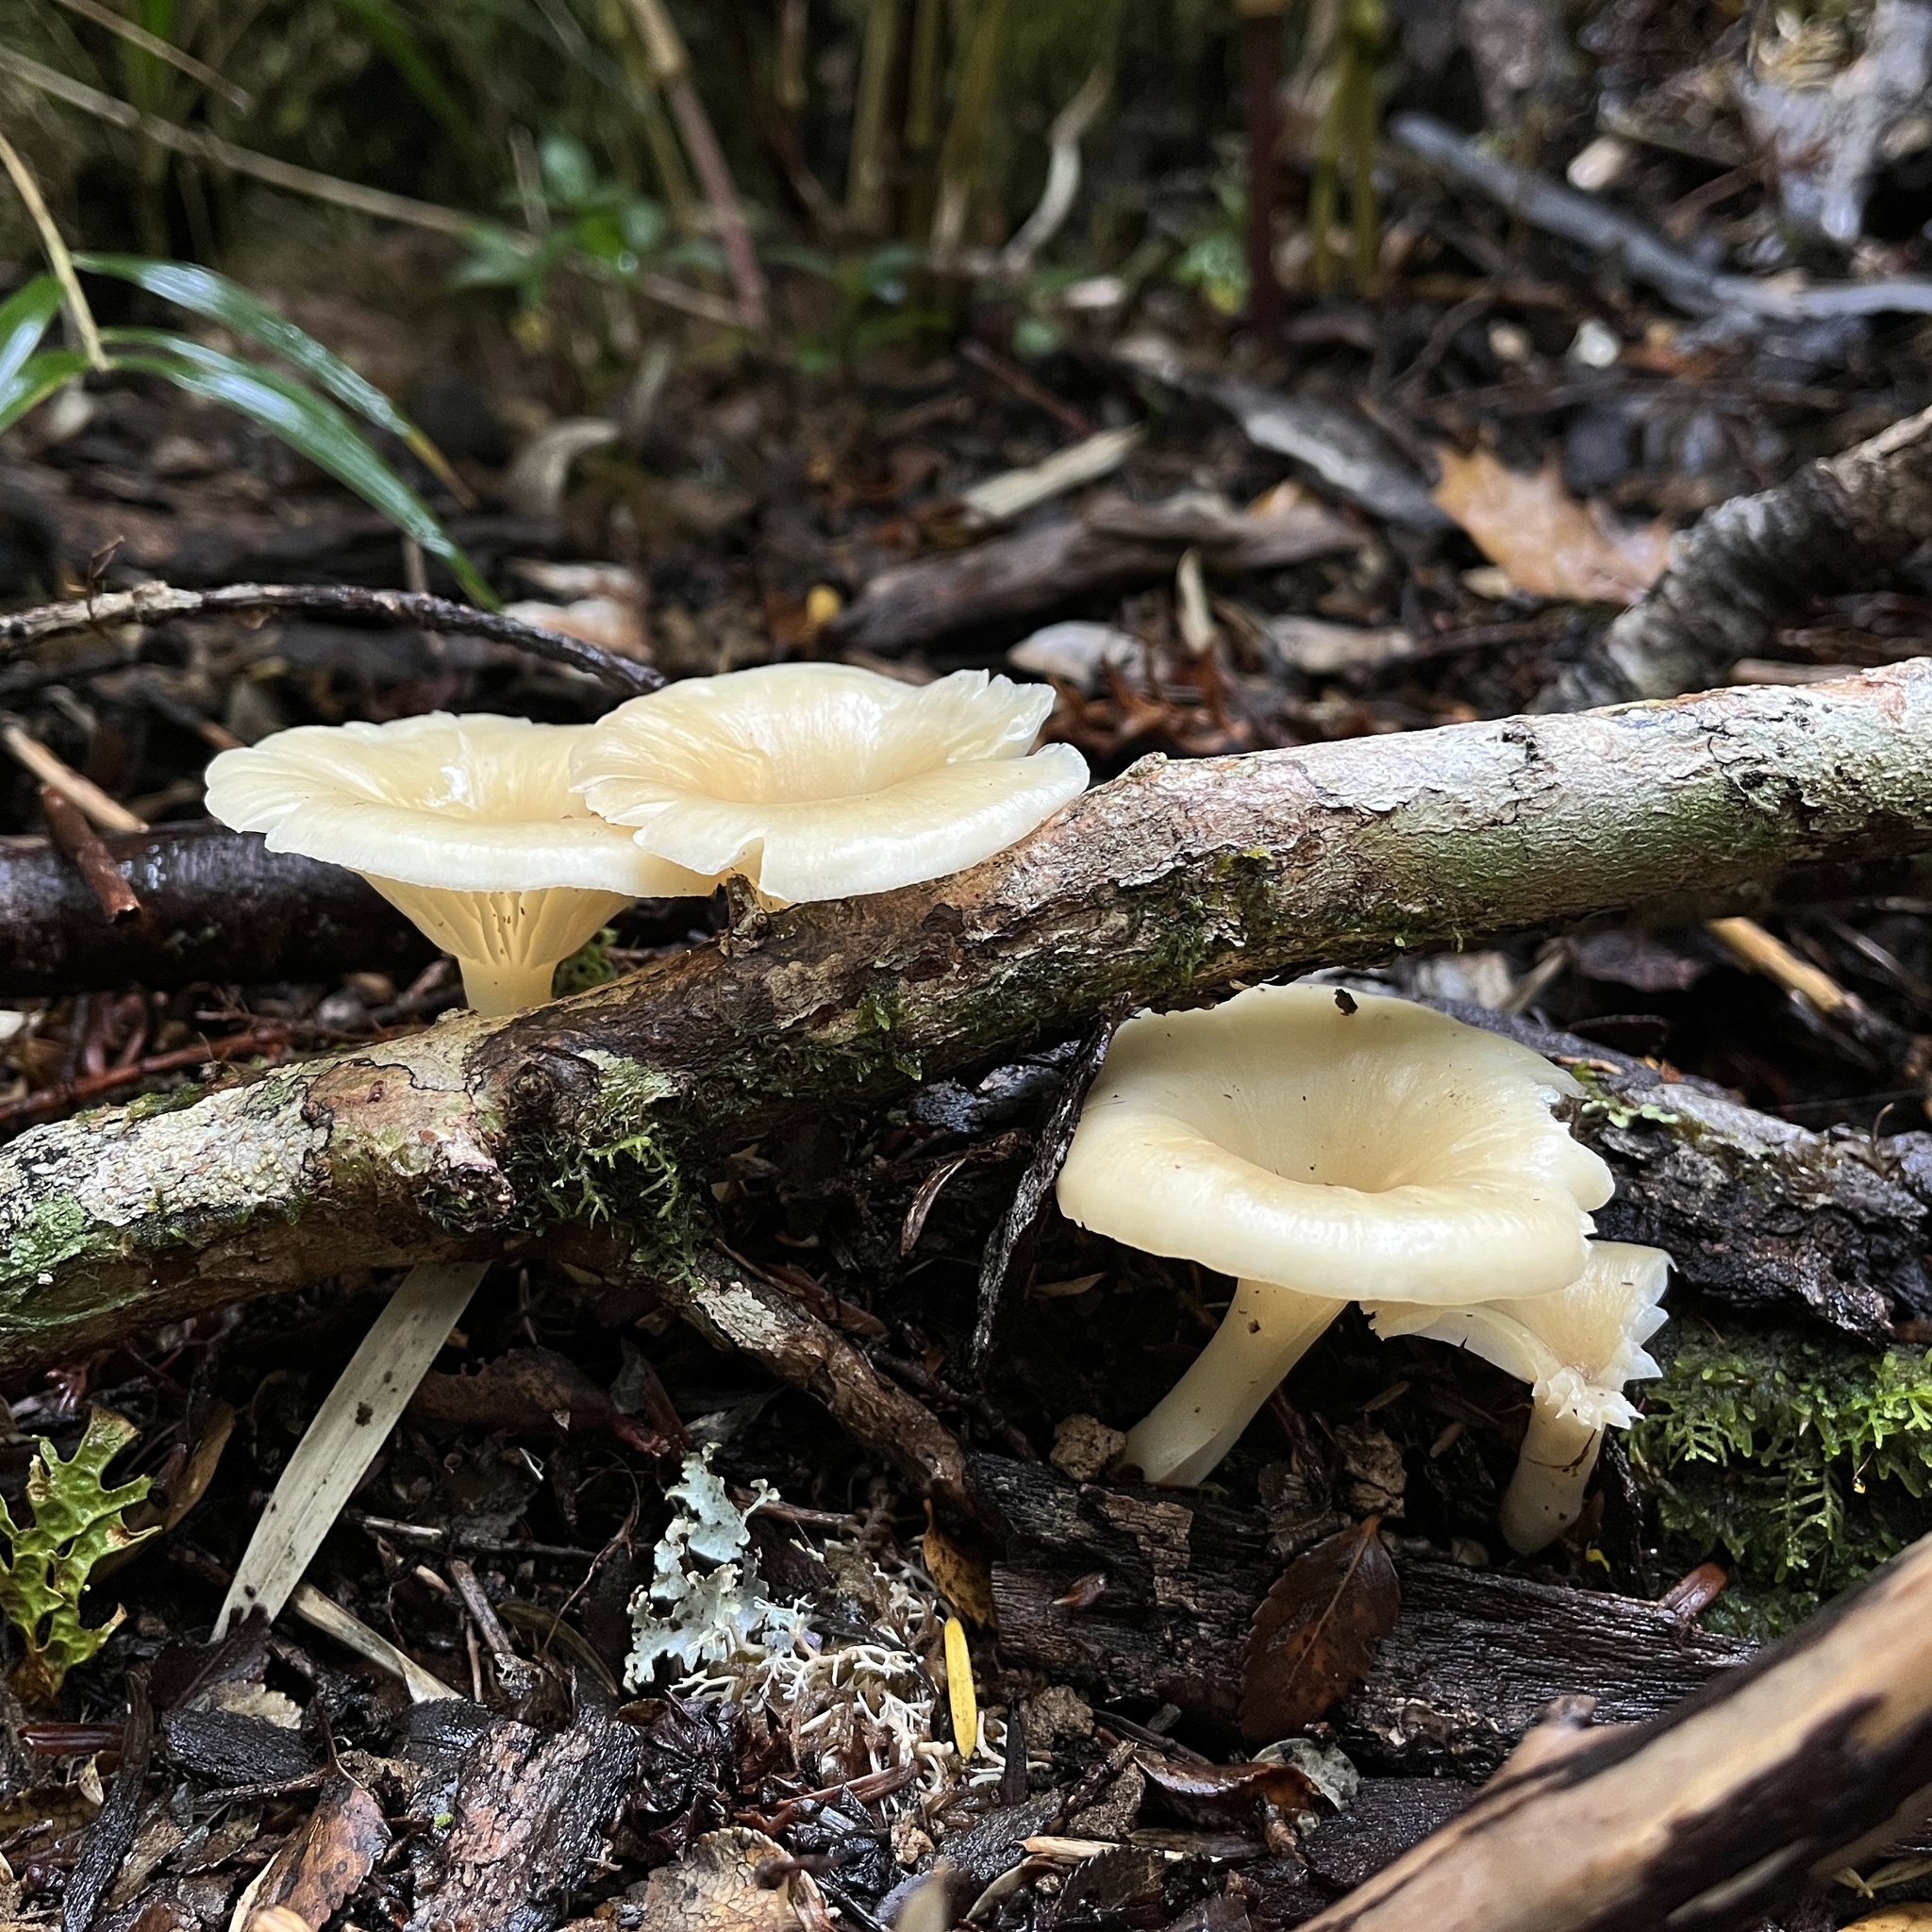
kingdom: Fungi
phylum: Basidiomycota
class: Agaricomycetes
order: Agaricales
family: Mycenaceae
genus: Hydropus
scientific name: Hydropus dusenii
